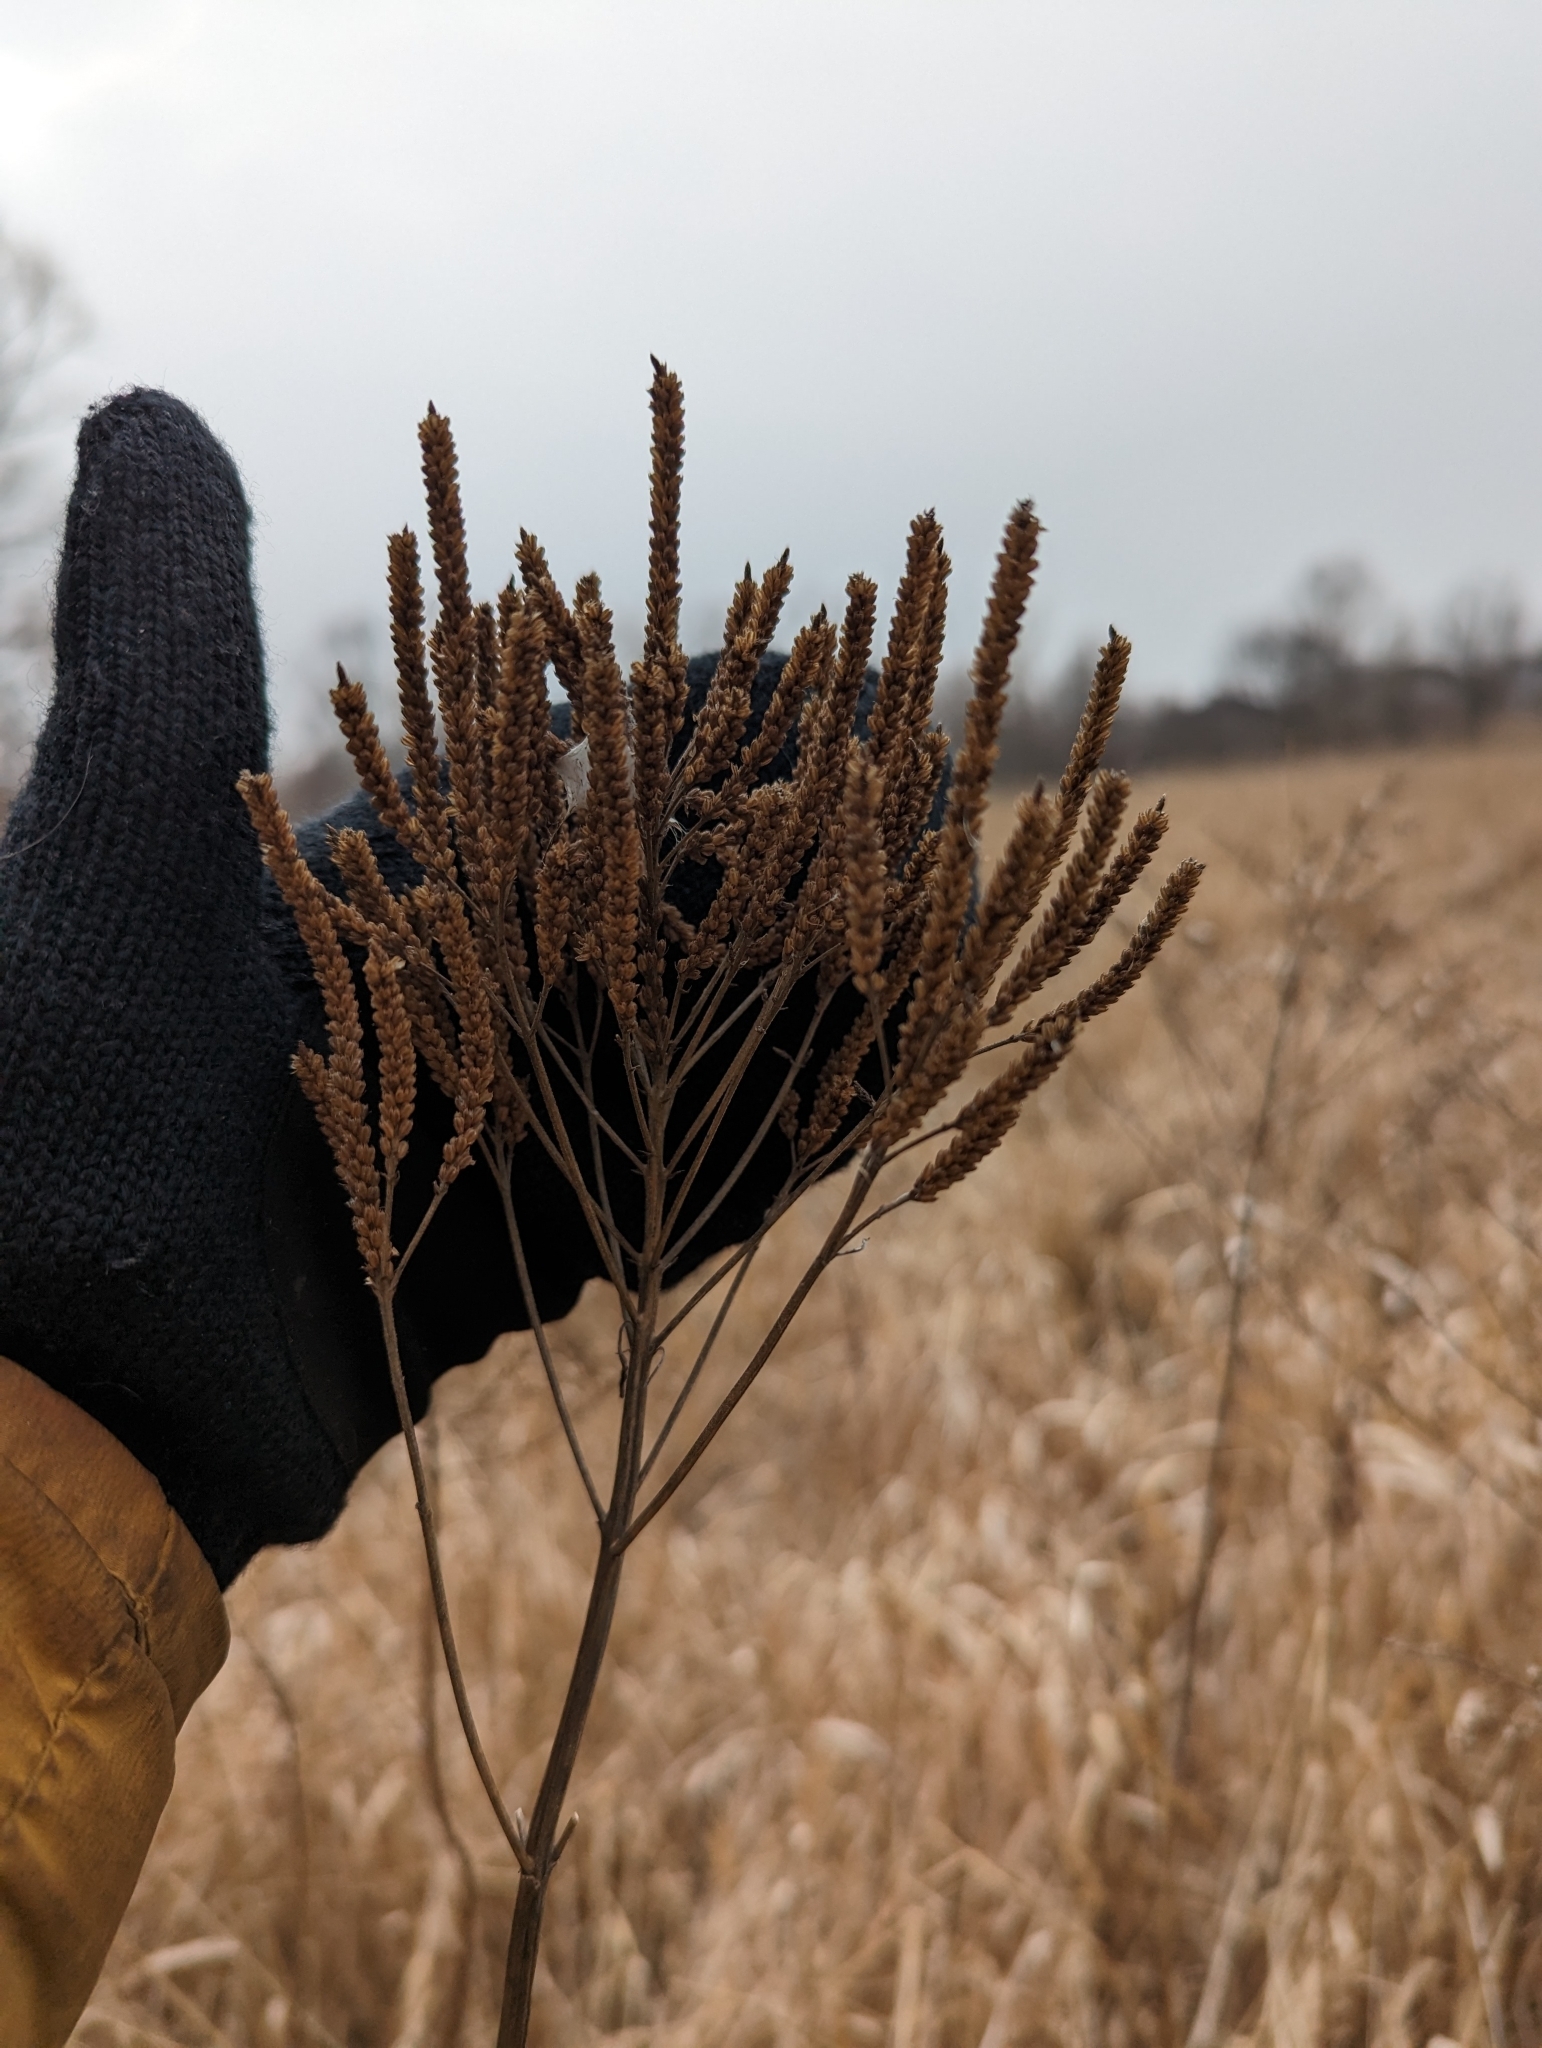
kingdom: Plantae
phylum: Tracheophyta
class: Magnoliopsida
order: Lamiales
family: Verbenaceae
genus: Verbena
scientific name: Verbena hastata
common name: American blue vervain
